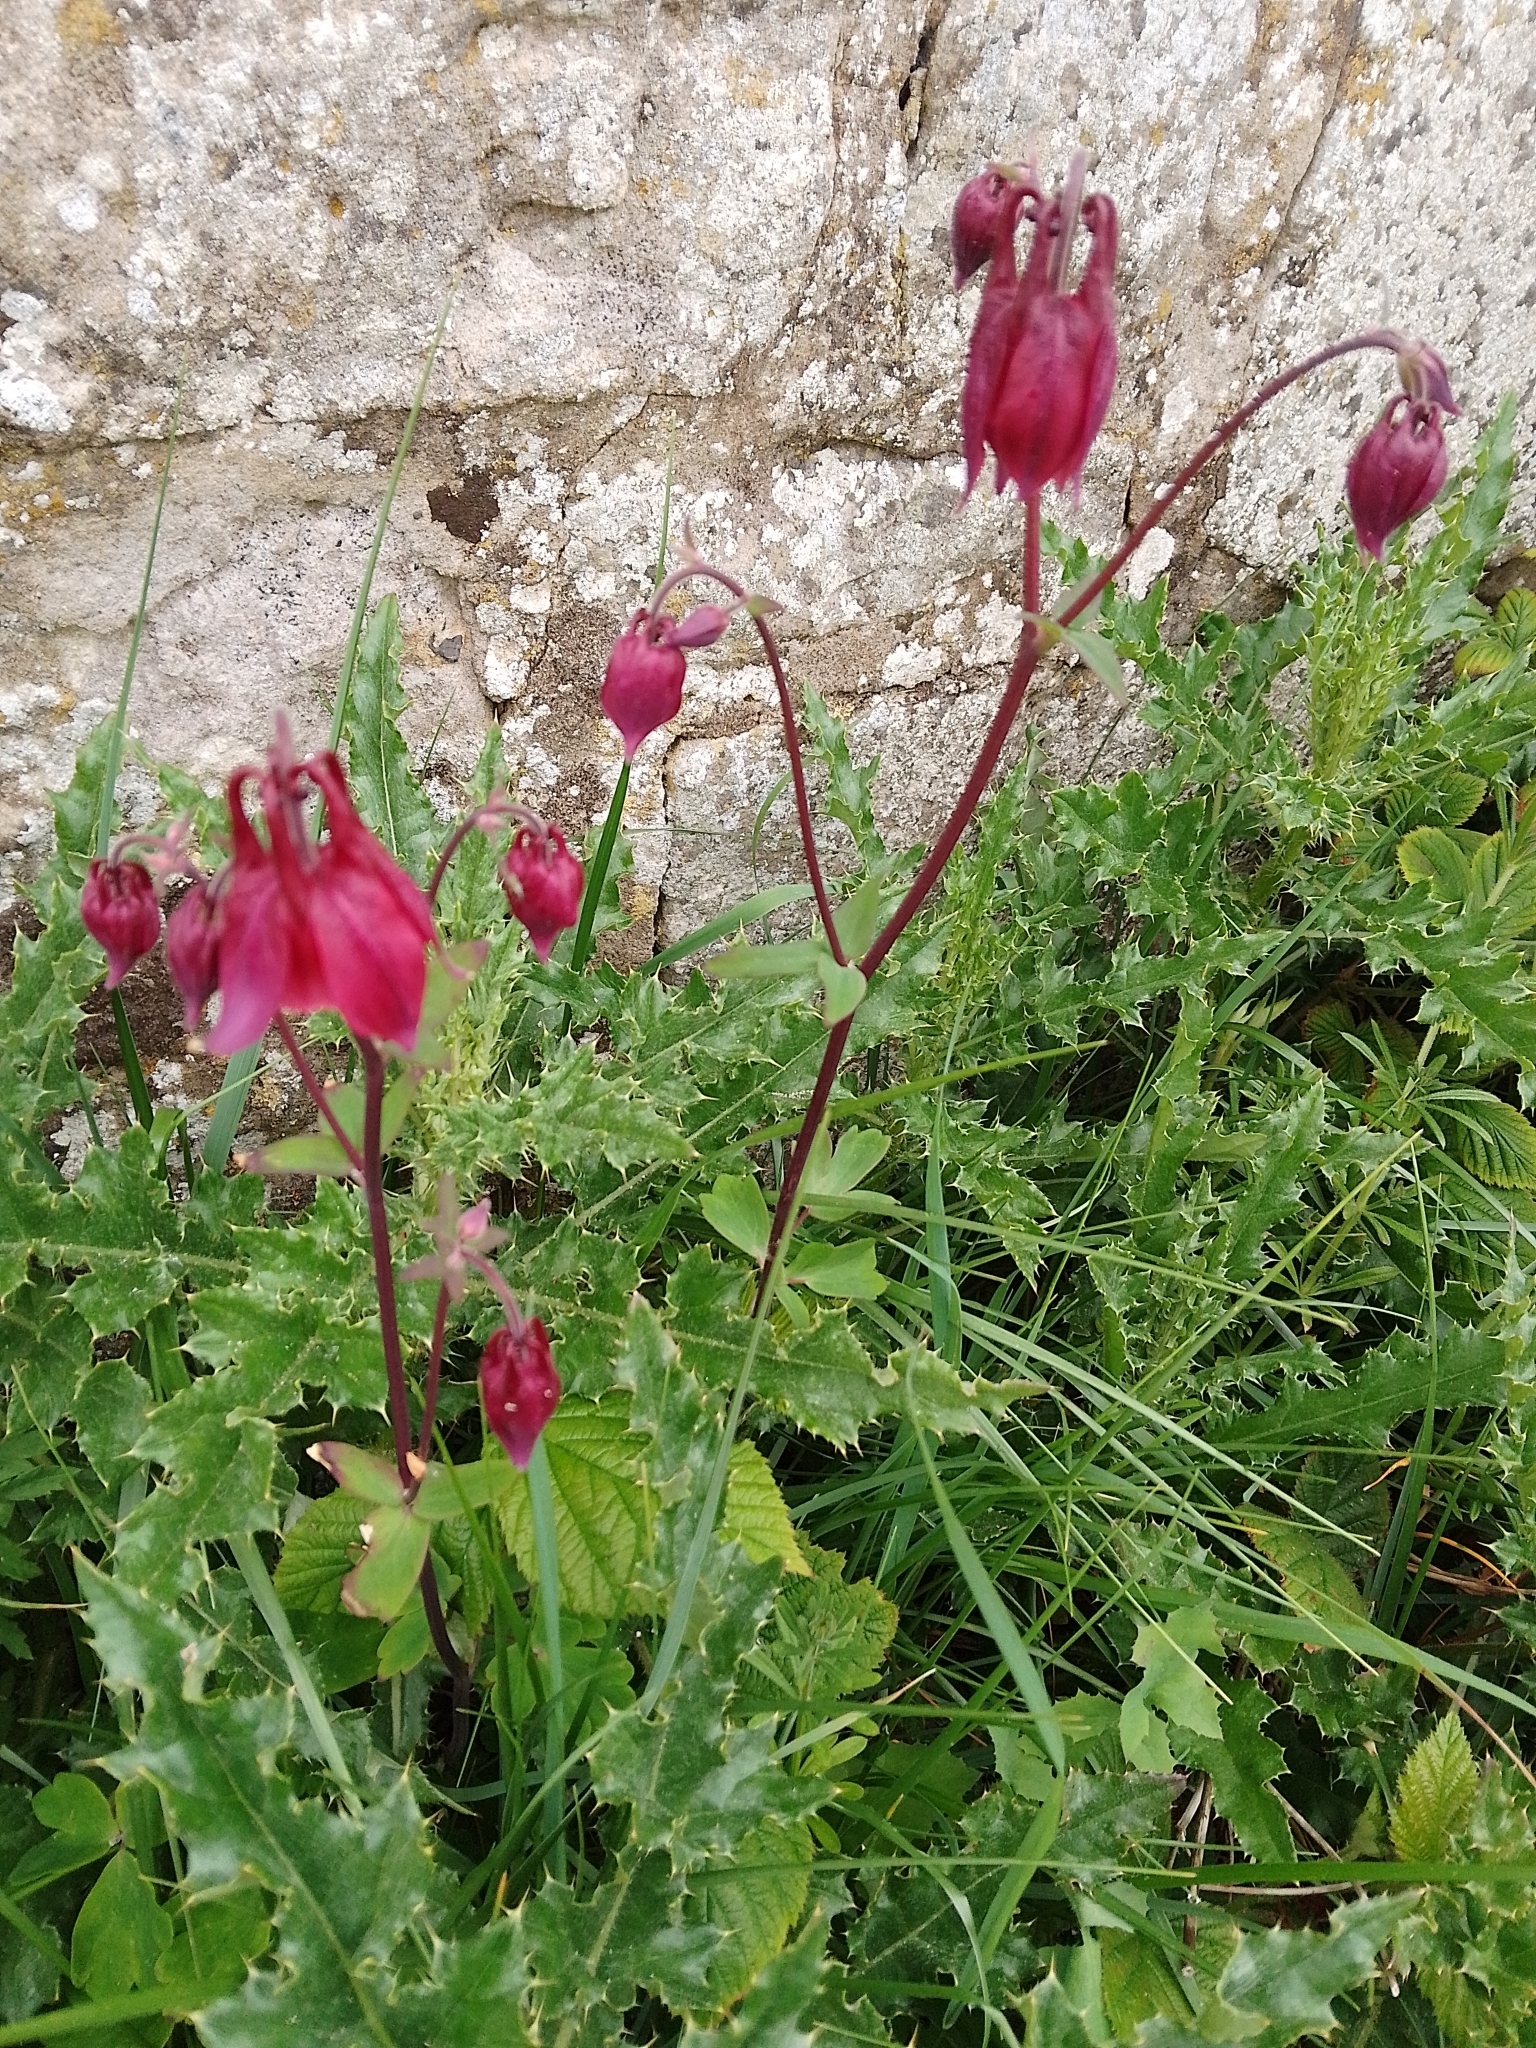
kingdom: Plantae
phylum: Tracheophyta
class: Magnoliopsida
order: Ranunculales
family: Ranunculaceae
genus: Aquilegia
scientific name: Aquilegia vulgaris
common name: Columbine
